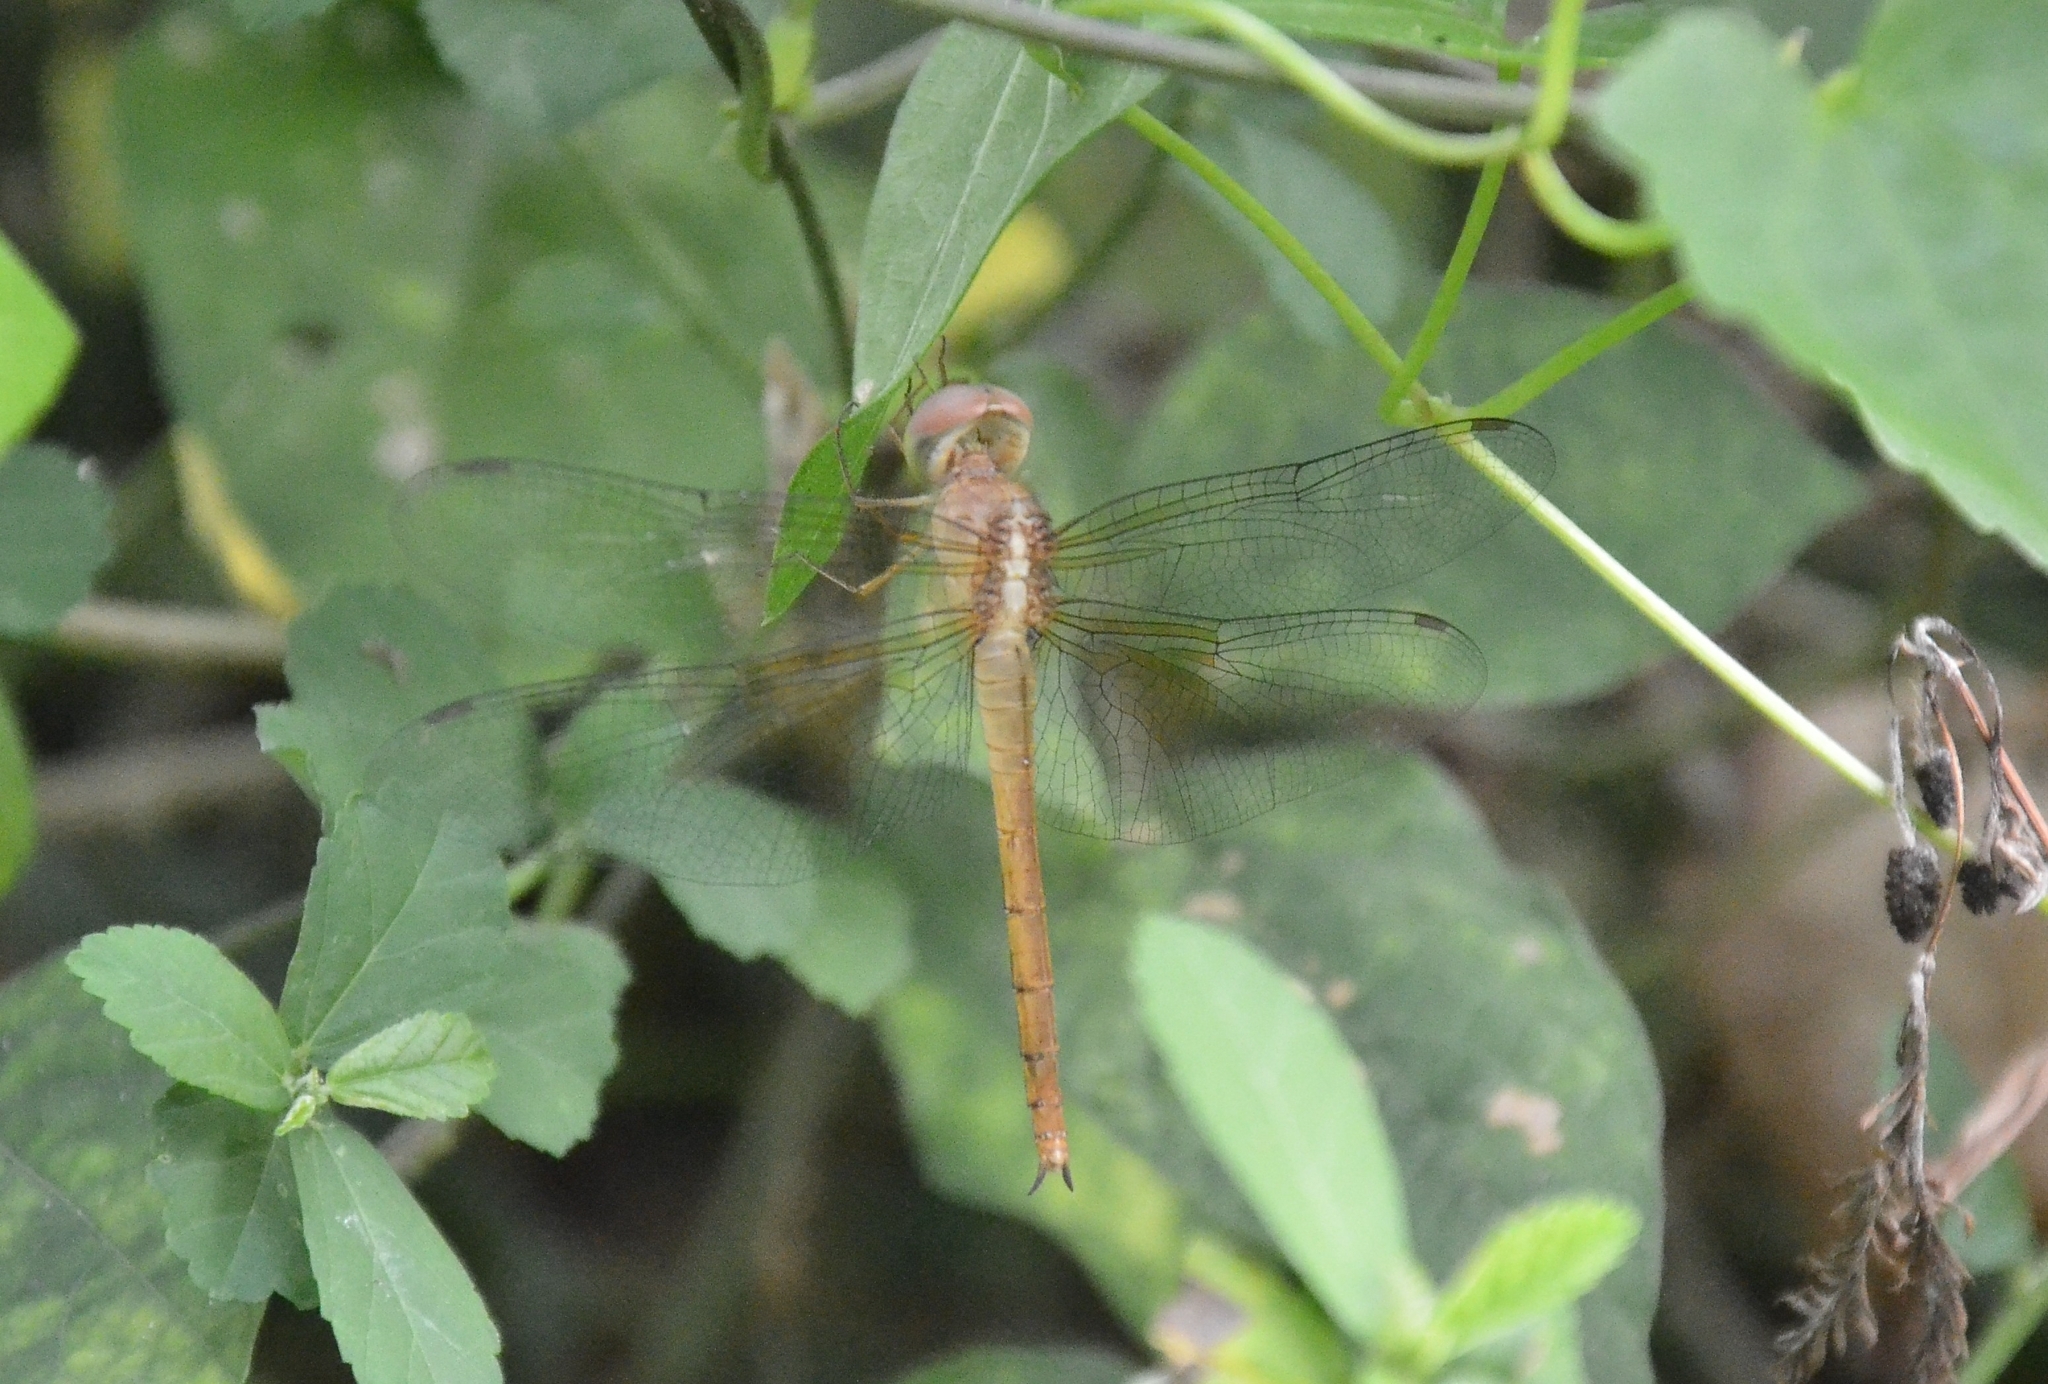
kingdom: Animalia
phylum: Arthropoda
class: Insecta
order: Odonata
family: Libellulidae
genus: Tholymis
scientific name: Tholymis tillarga
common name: Coral-tailed cloud wing
